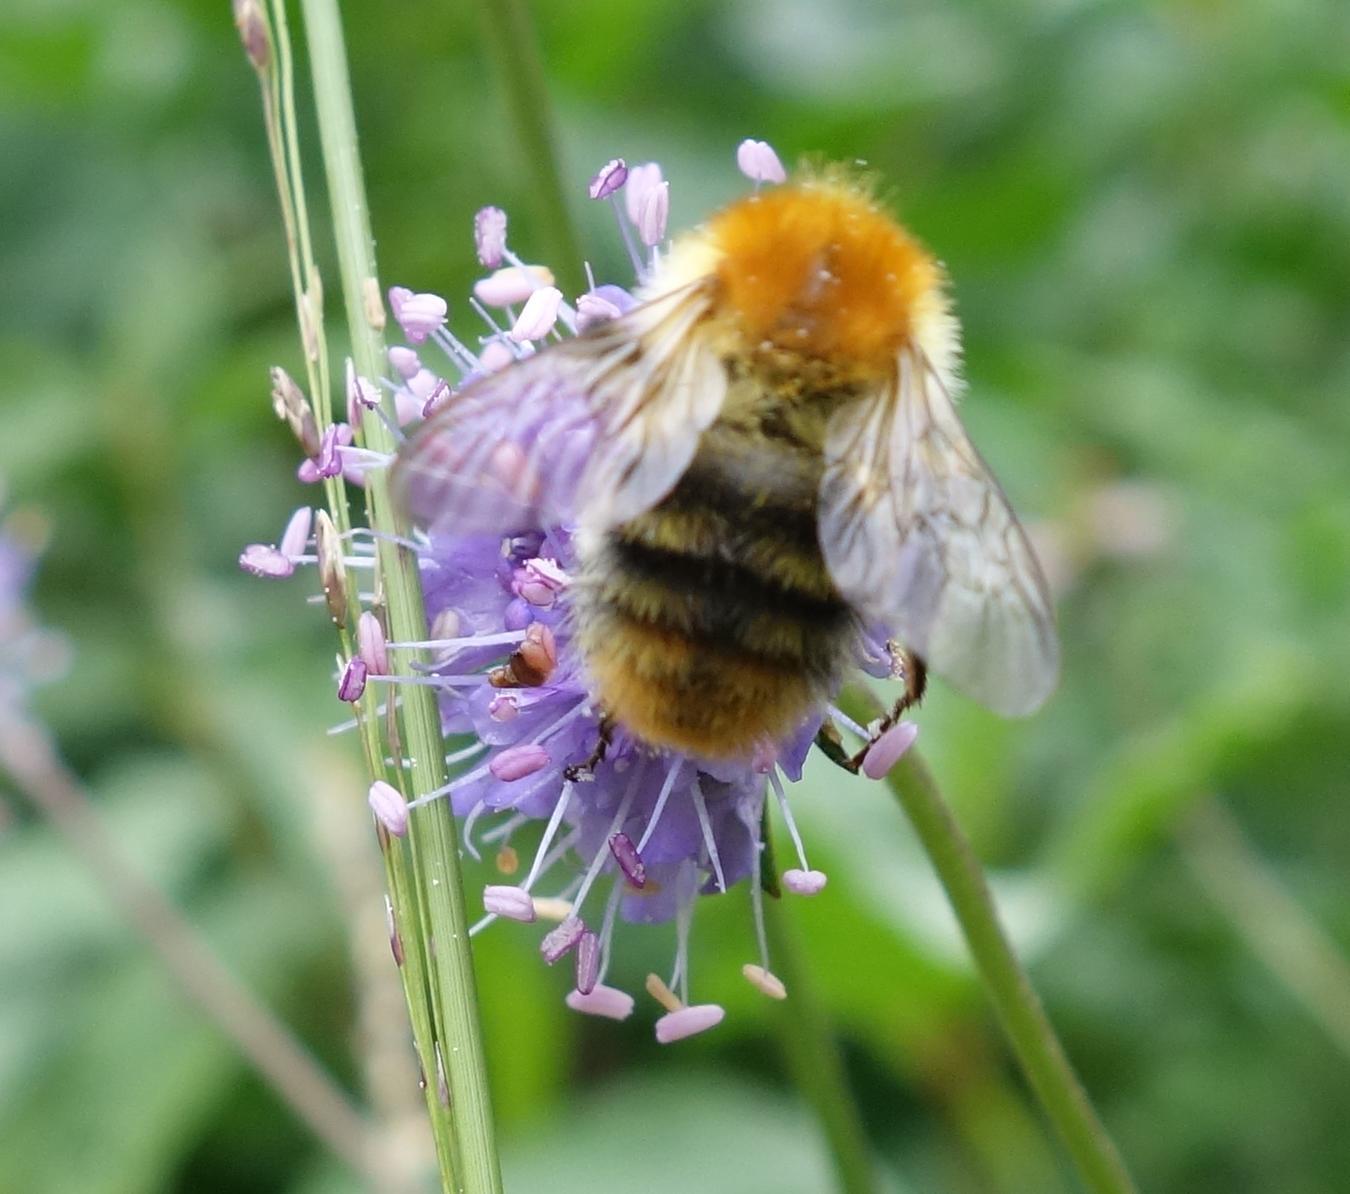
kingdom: Animalia
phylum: Arthropoda
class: Insecta
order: Hymenoptera
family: Apidae
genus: Bombus
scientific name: Bombus pascuorum
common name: Common carder bee
